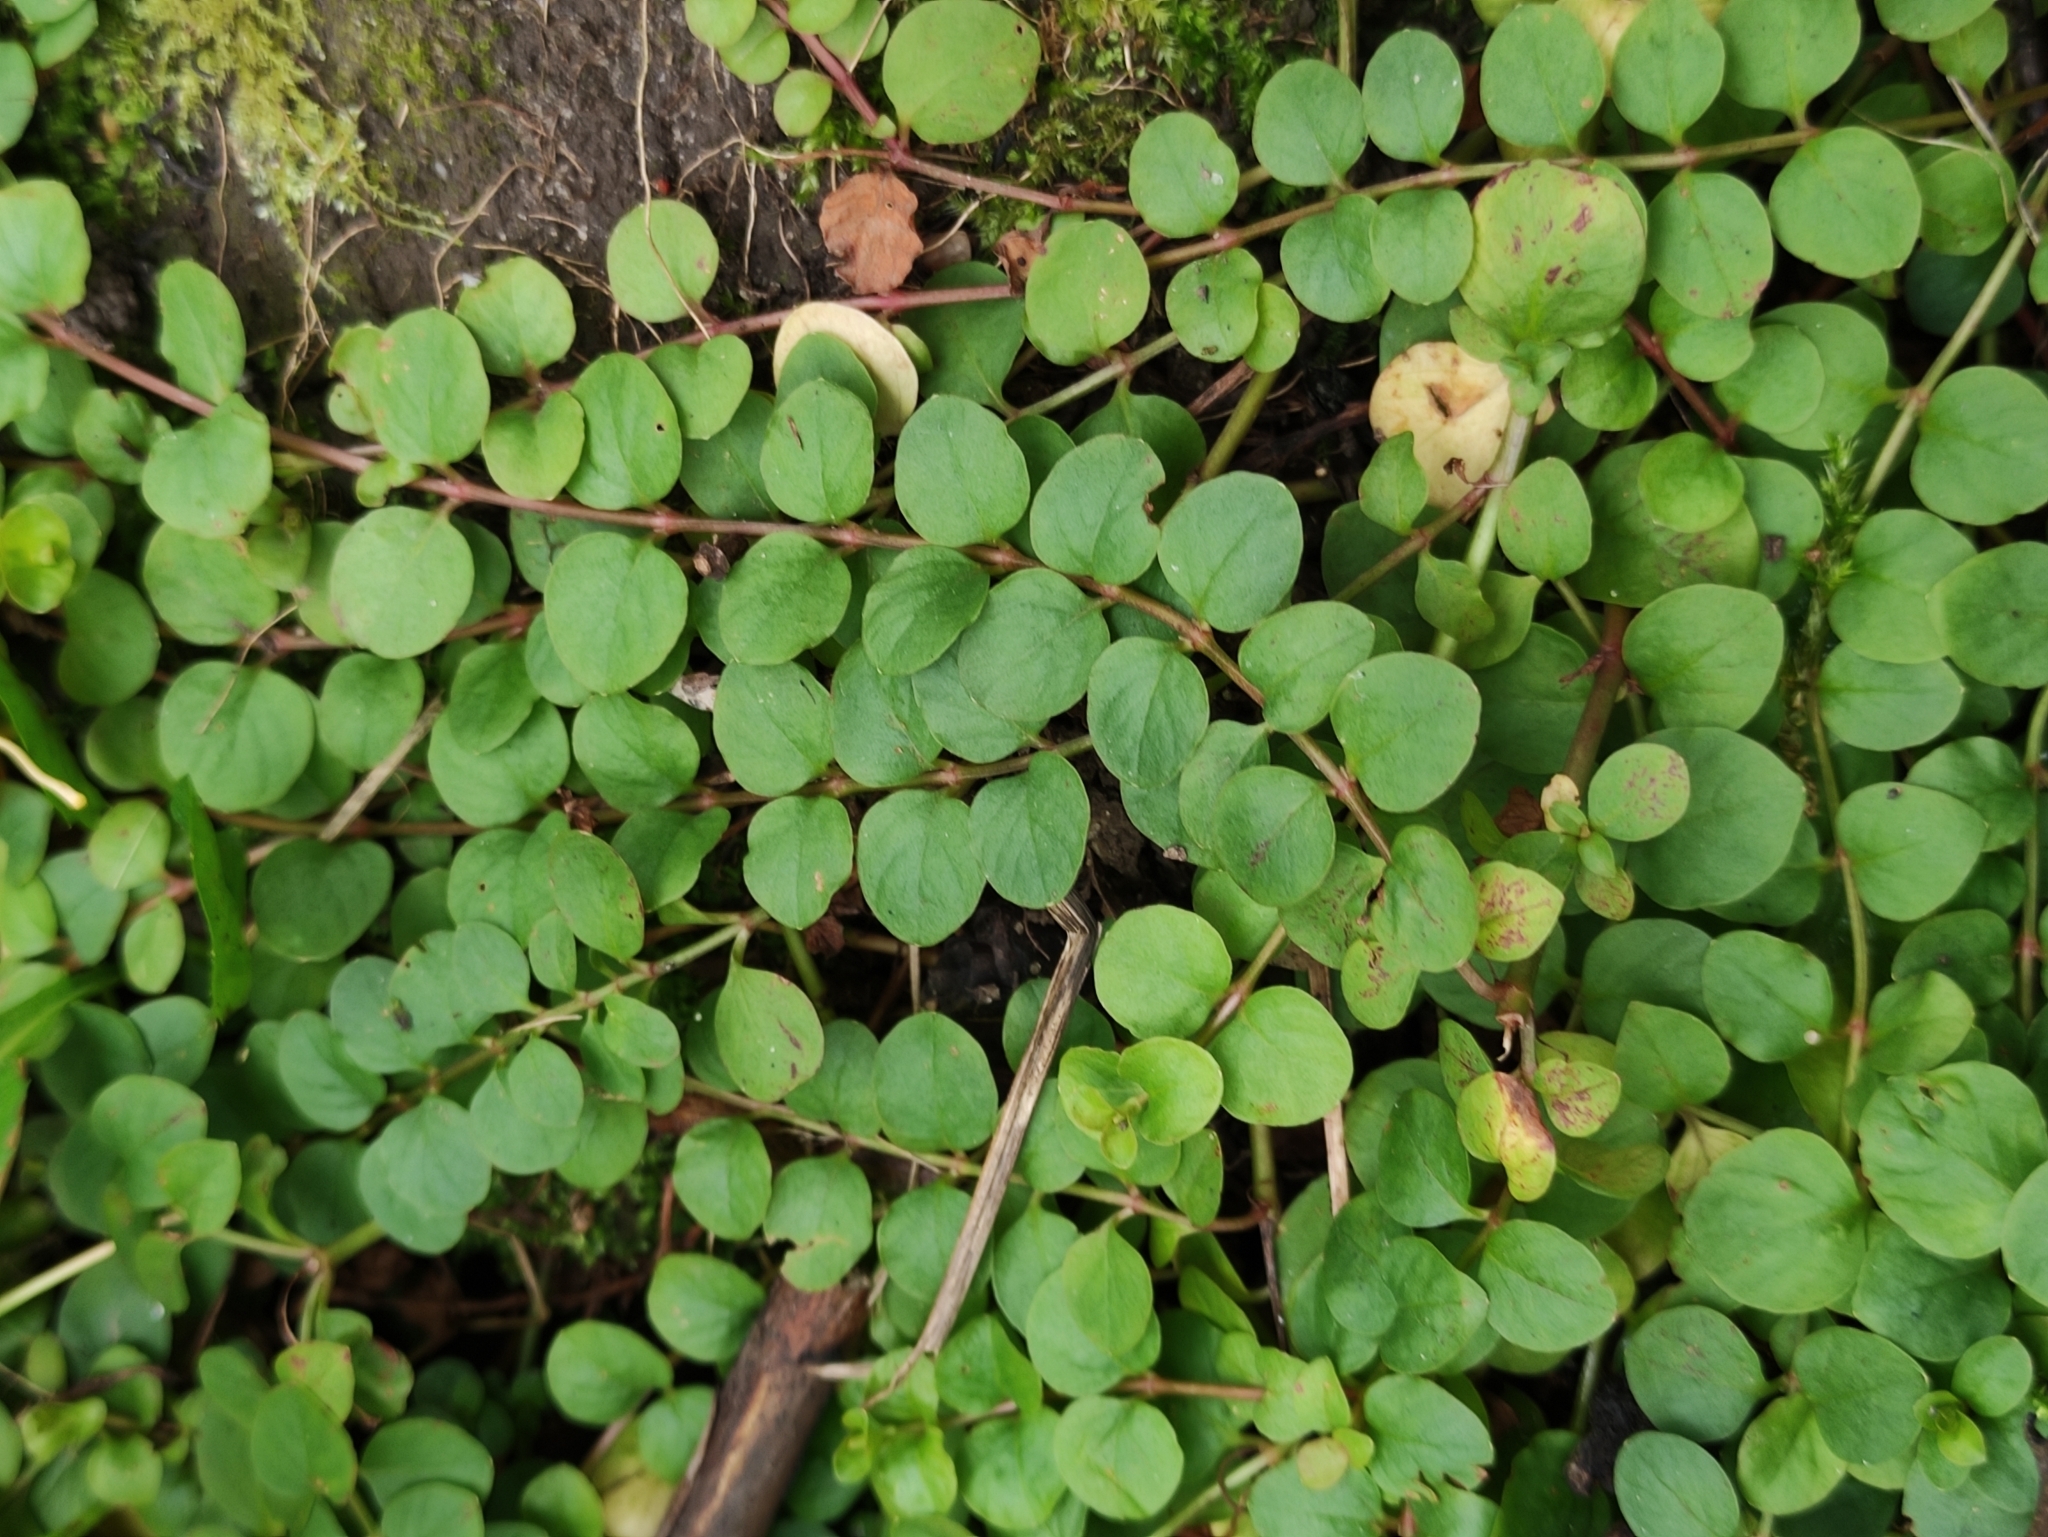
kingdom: Plantae
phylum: Tracheophyta
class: Magnoliopsida
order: Ericales
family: Primulaceae
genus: Lysimachia
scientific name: Lysimachia nummularia
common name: Moneywort
